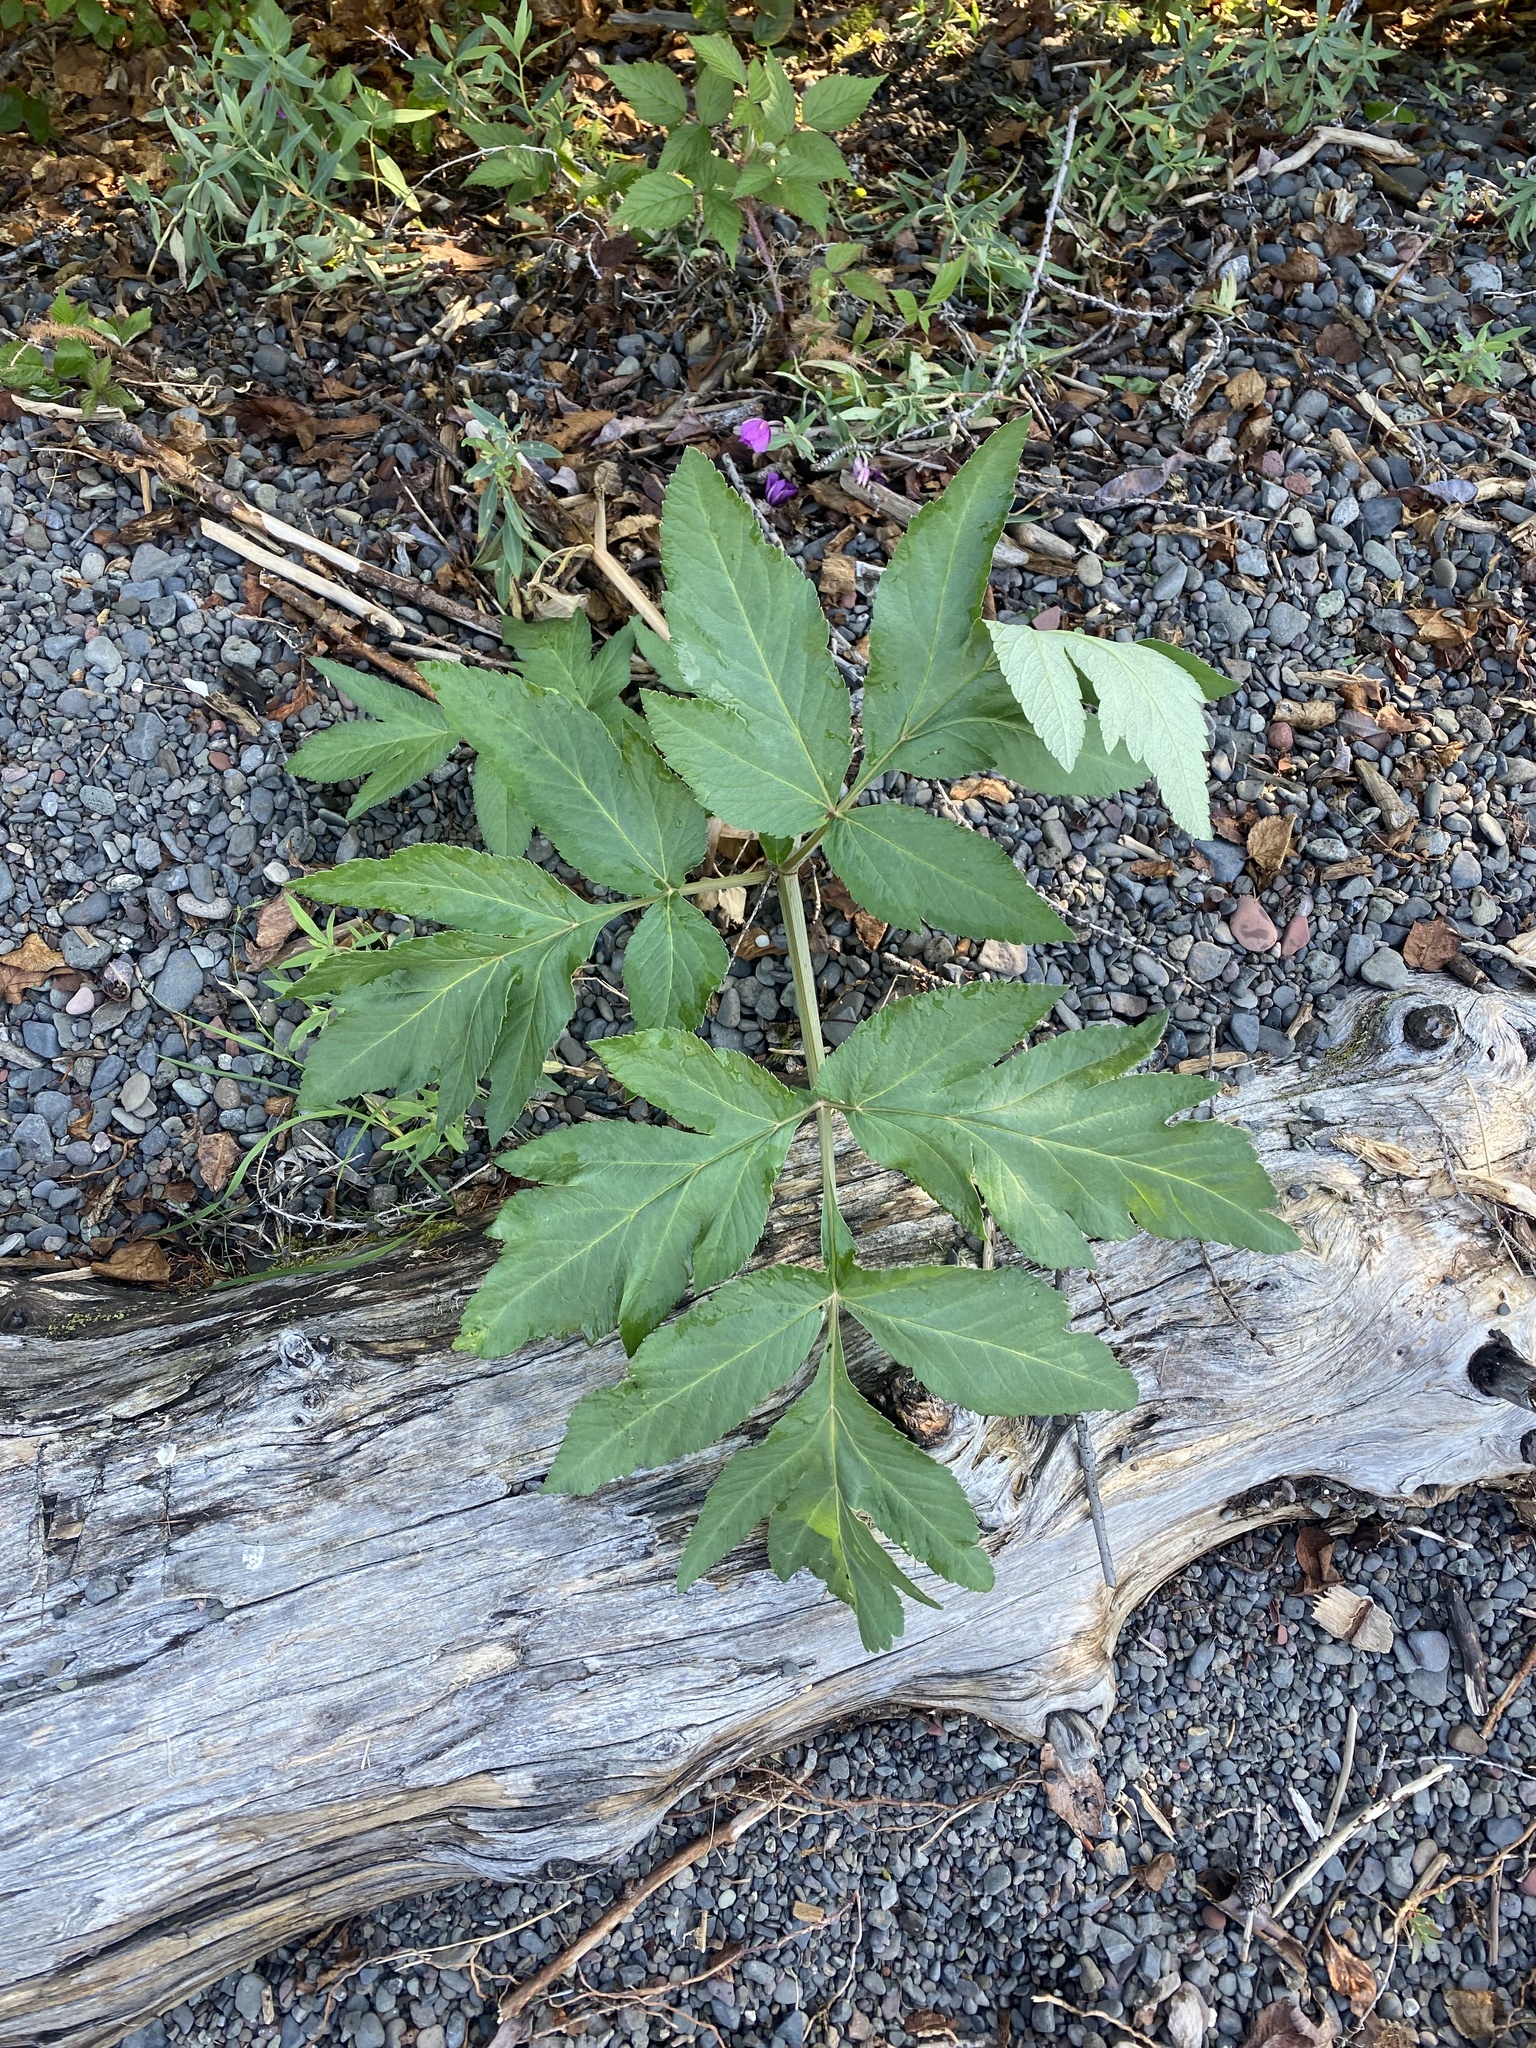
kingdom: Plantae
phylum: Tracheophyta
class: Magnoliopsida
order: Apiales
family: Apiaceae
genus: Angelica
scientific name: Angelica decurrens
